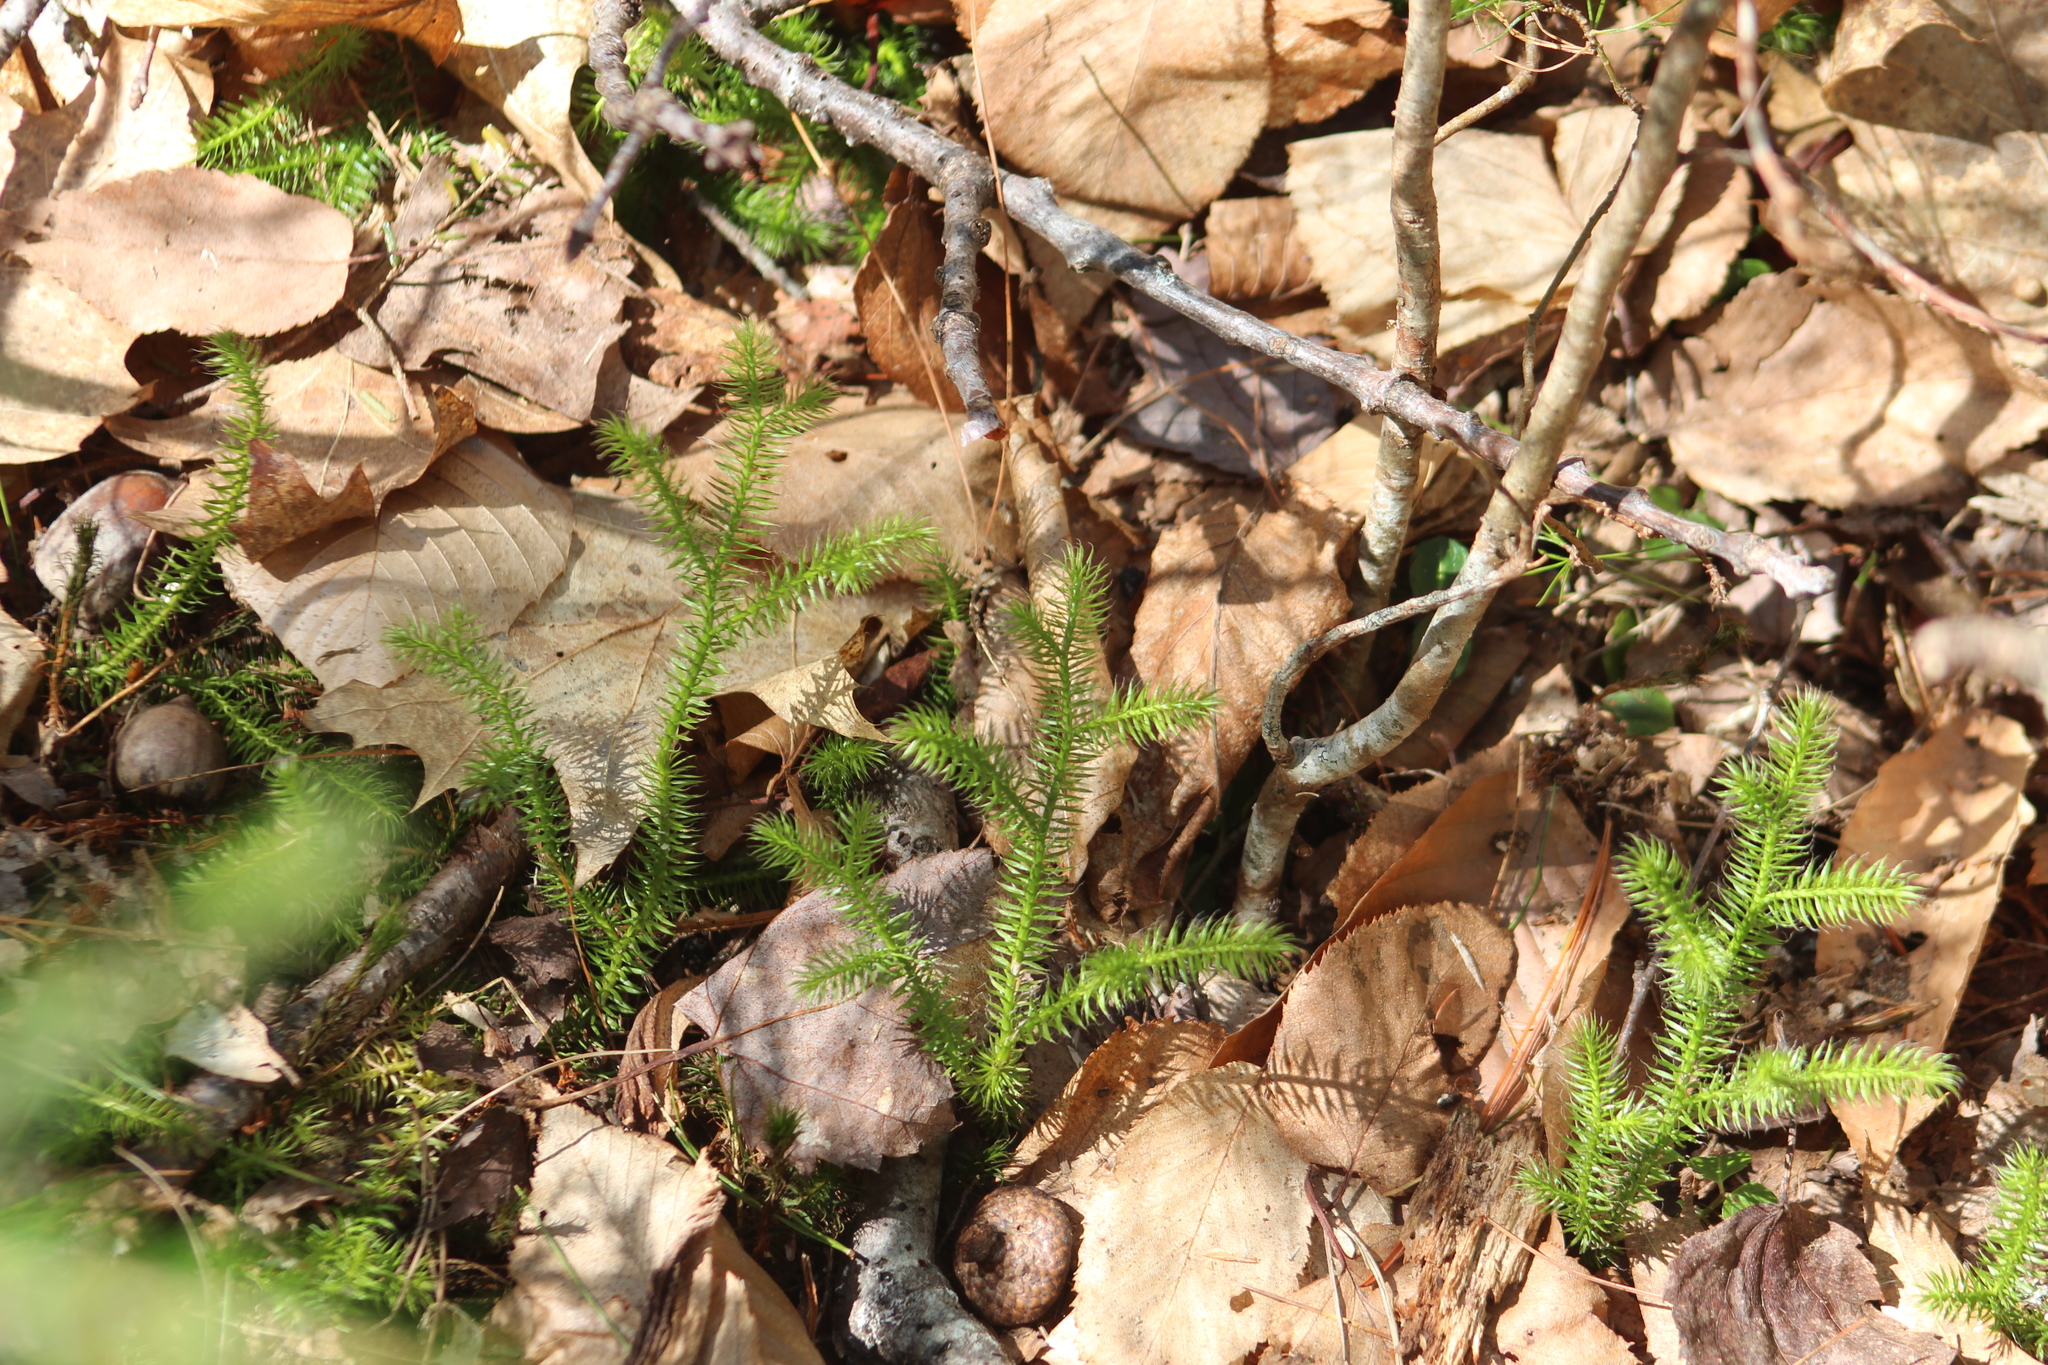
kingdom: Plantae
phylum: Tracheophyta
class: Lycopodiopsida
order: Lycopodiales
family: Lycopodiaceae
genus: Lycopodium
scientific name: Lycopodium clavatum
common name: Stag's-horn clubmoss
